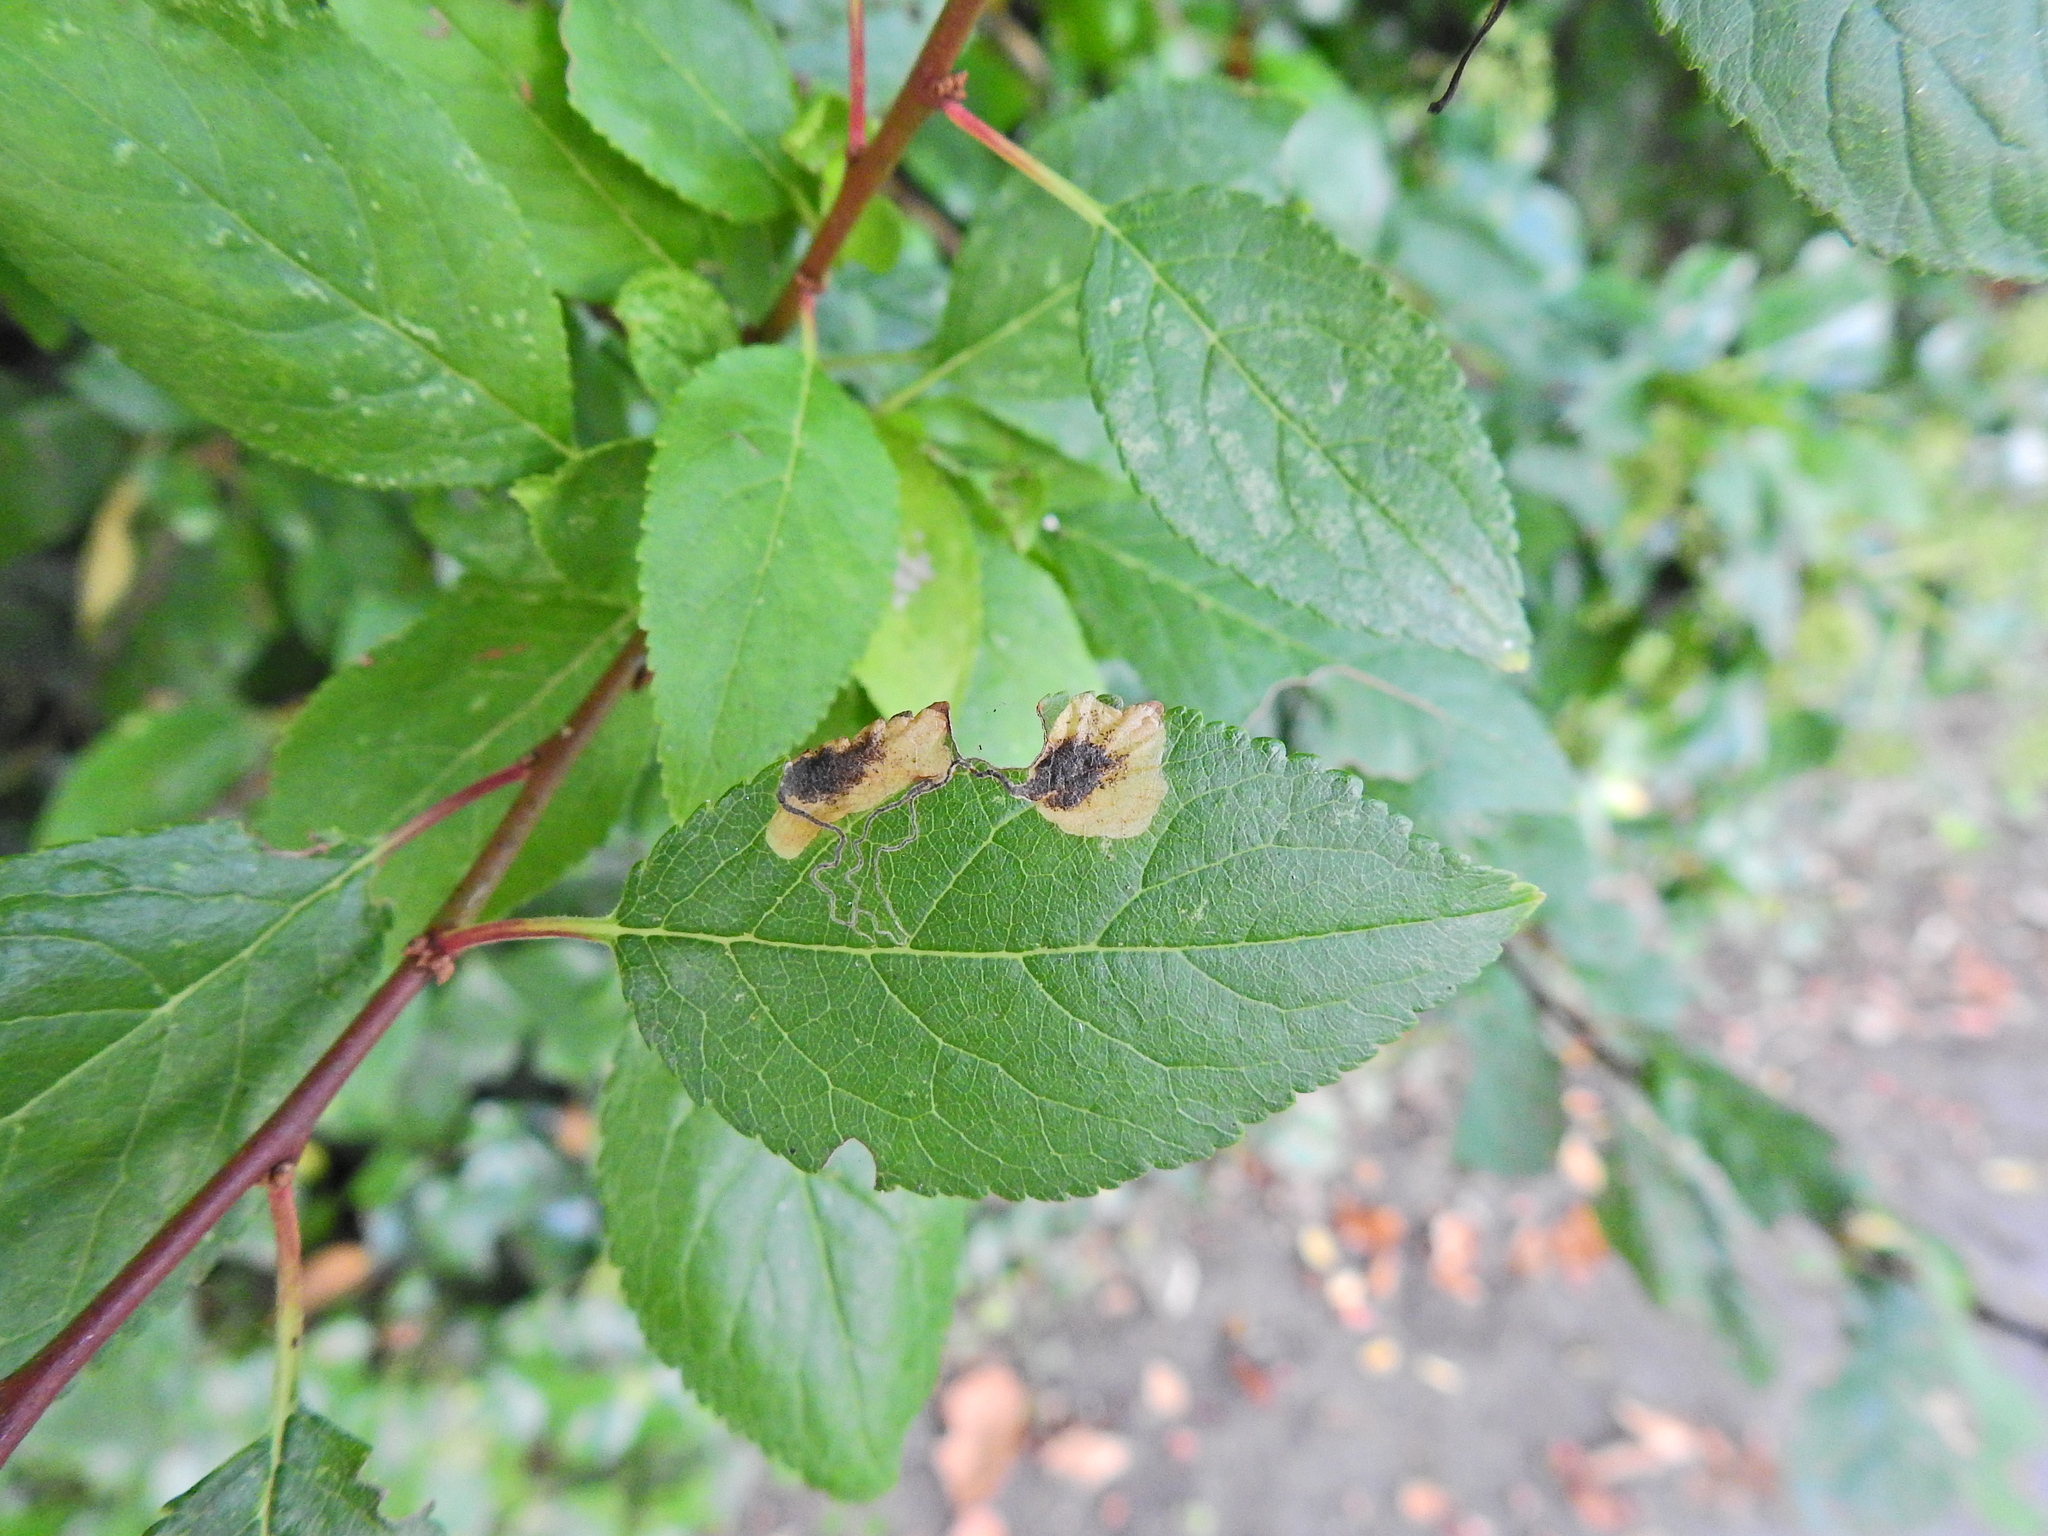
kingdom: Animalia
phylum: Arthropoda
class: Insecta
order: Lepidoptera
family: Nepticulidae
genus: Stigmella
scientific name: Stigmella plagicolella
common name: Scrubland pigmy
